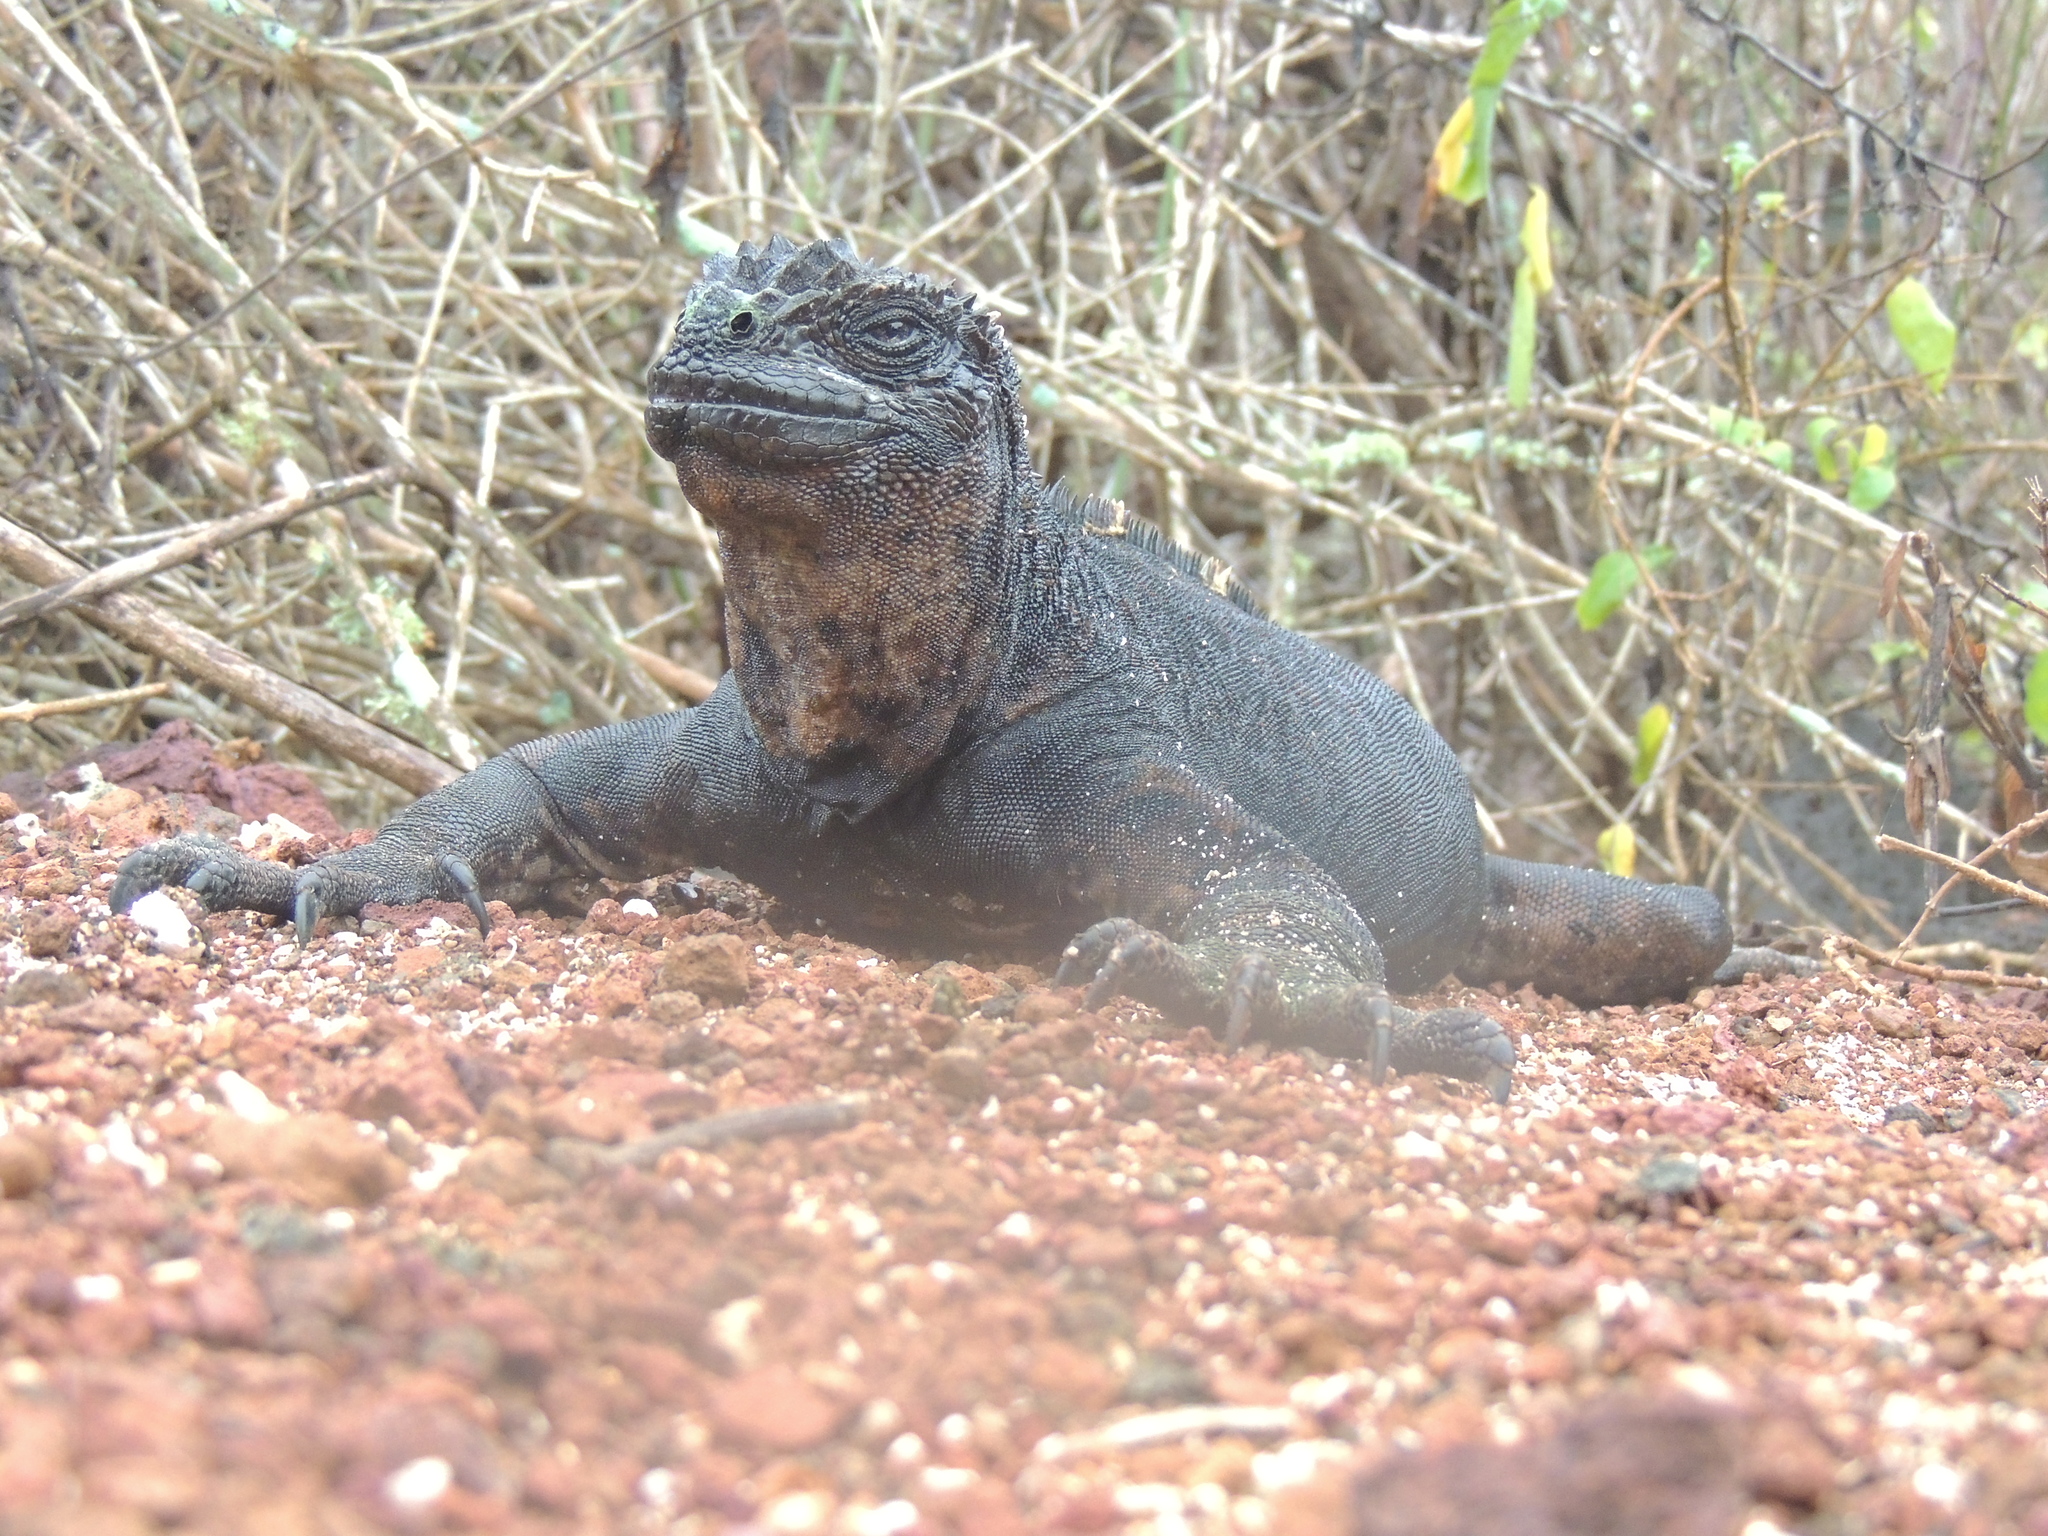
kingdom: Animalia
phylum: Chordata
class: Squamata
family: Iguanidae
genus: Amblyrhynchus
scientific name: Amblyrhynchus cristatus
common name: Marine iguana
